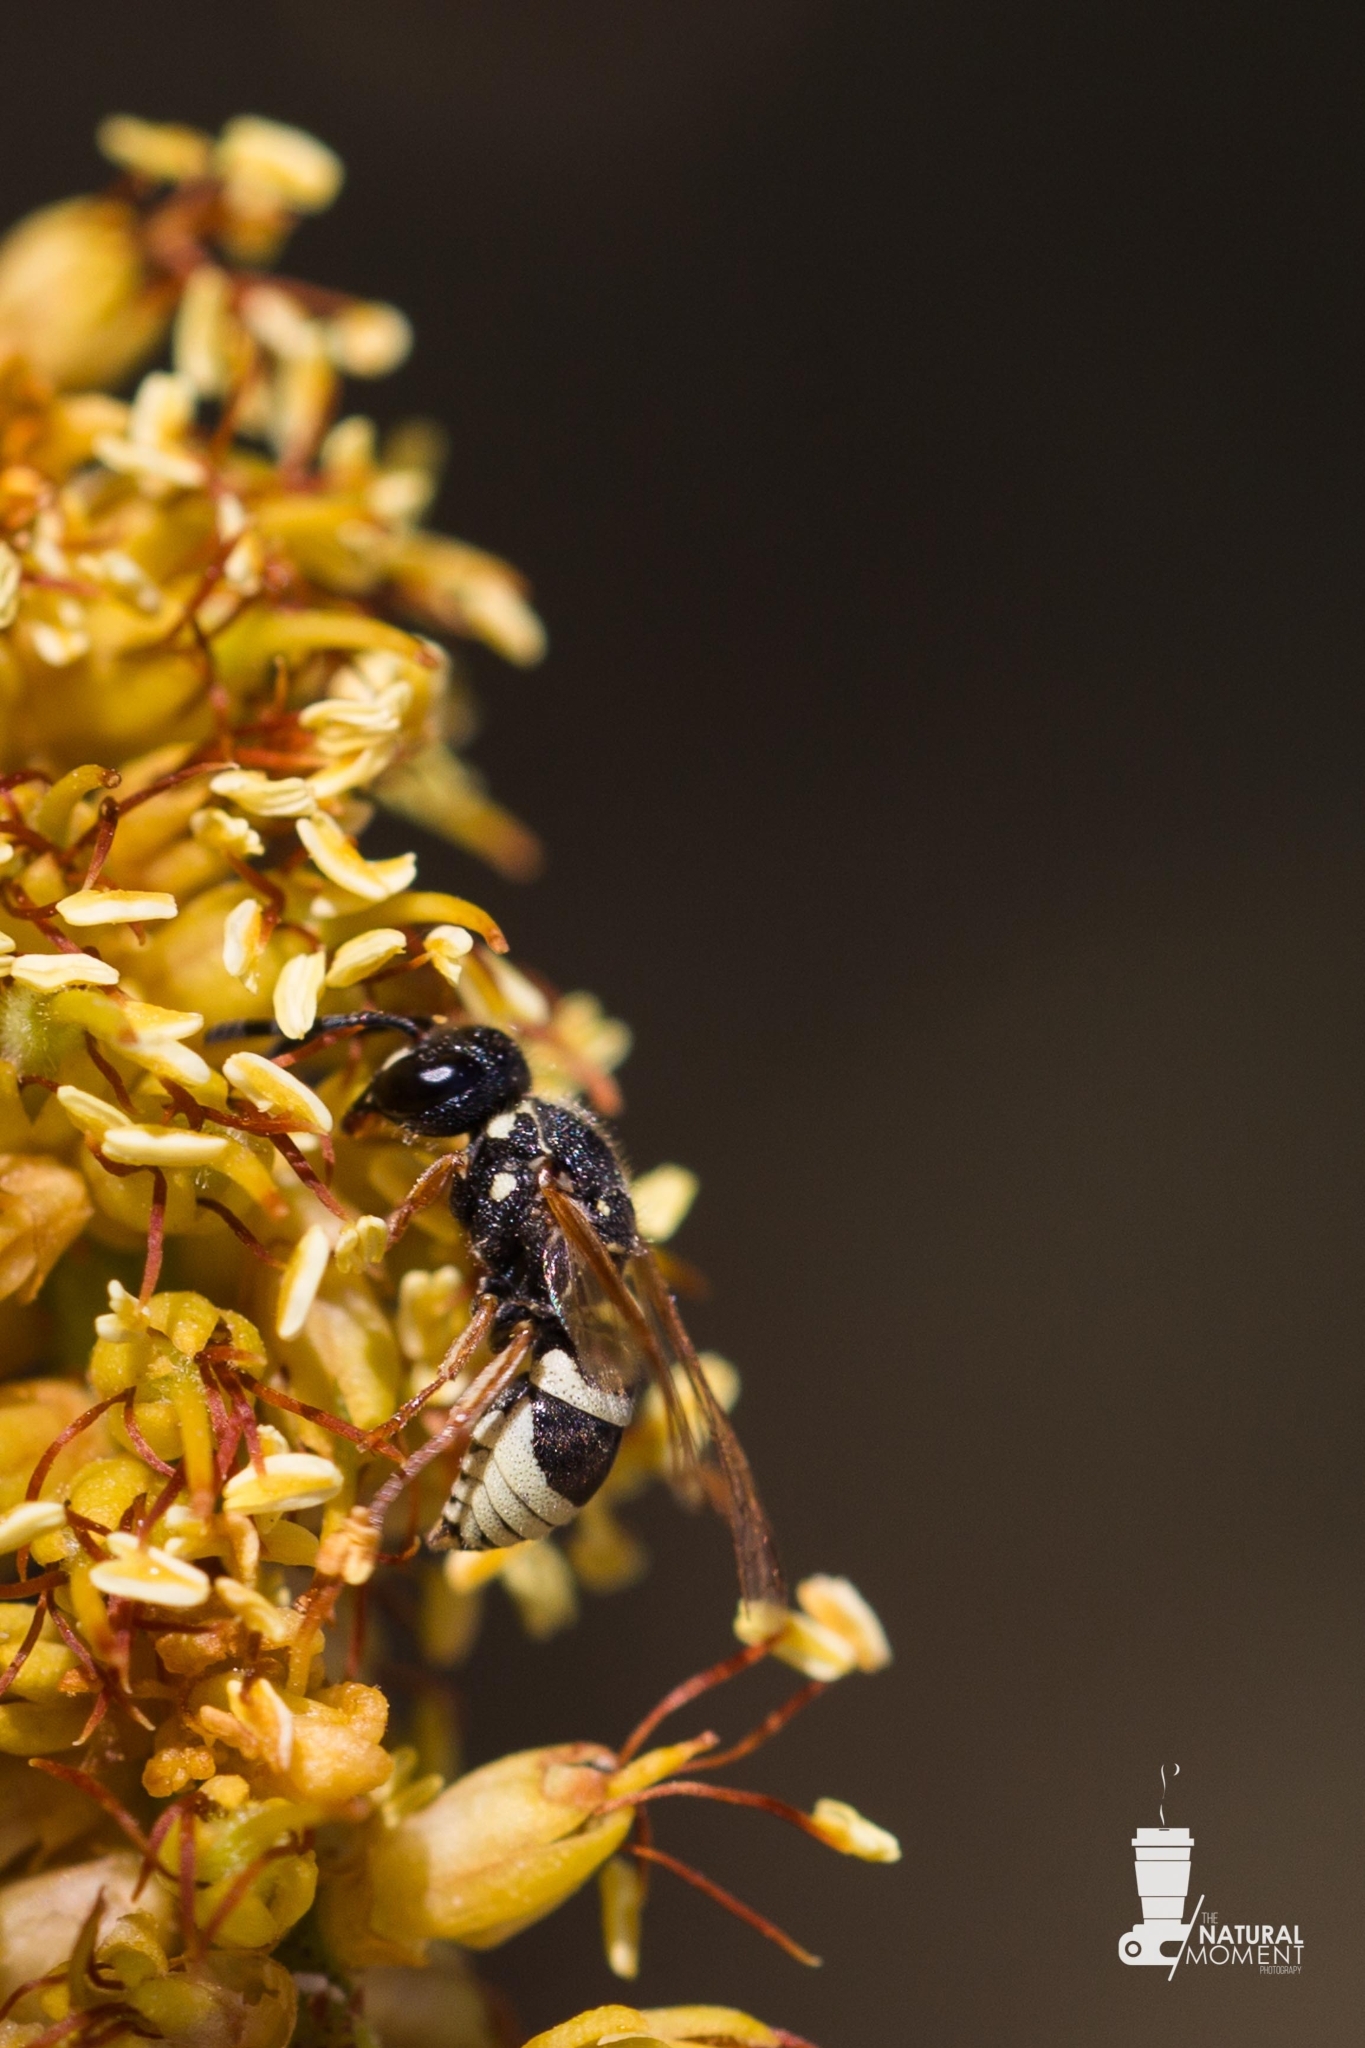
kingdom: Animalia
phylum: Arthropoda
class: Insecta
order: Hymenoptera
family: Eumenidae
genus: Pachodynerus
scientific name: Pachodynerus peruensis
